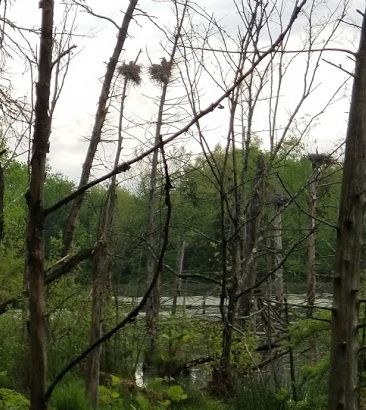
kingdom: Animalia
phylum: Chordata
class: Aves
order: Pelecaniformes
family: Ardeidae
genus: Ardea
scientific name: Ardea herodias
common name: Great blue heron
